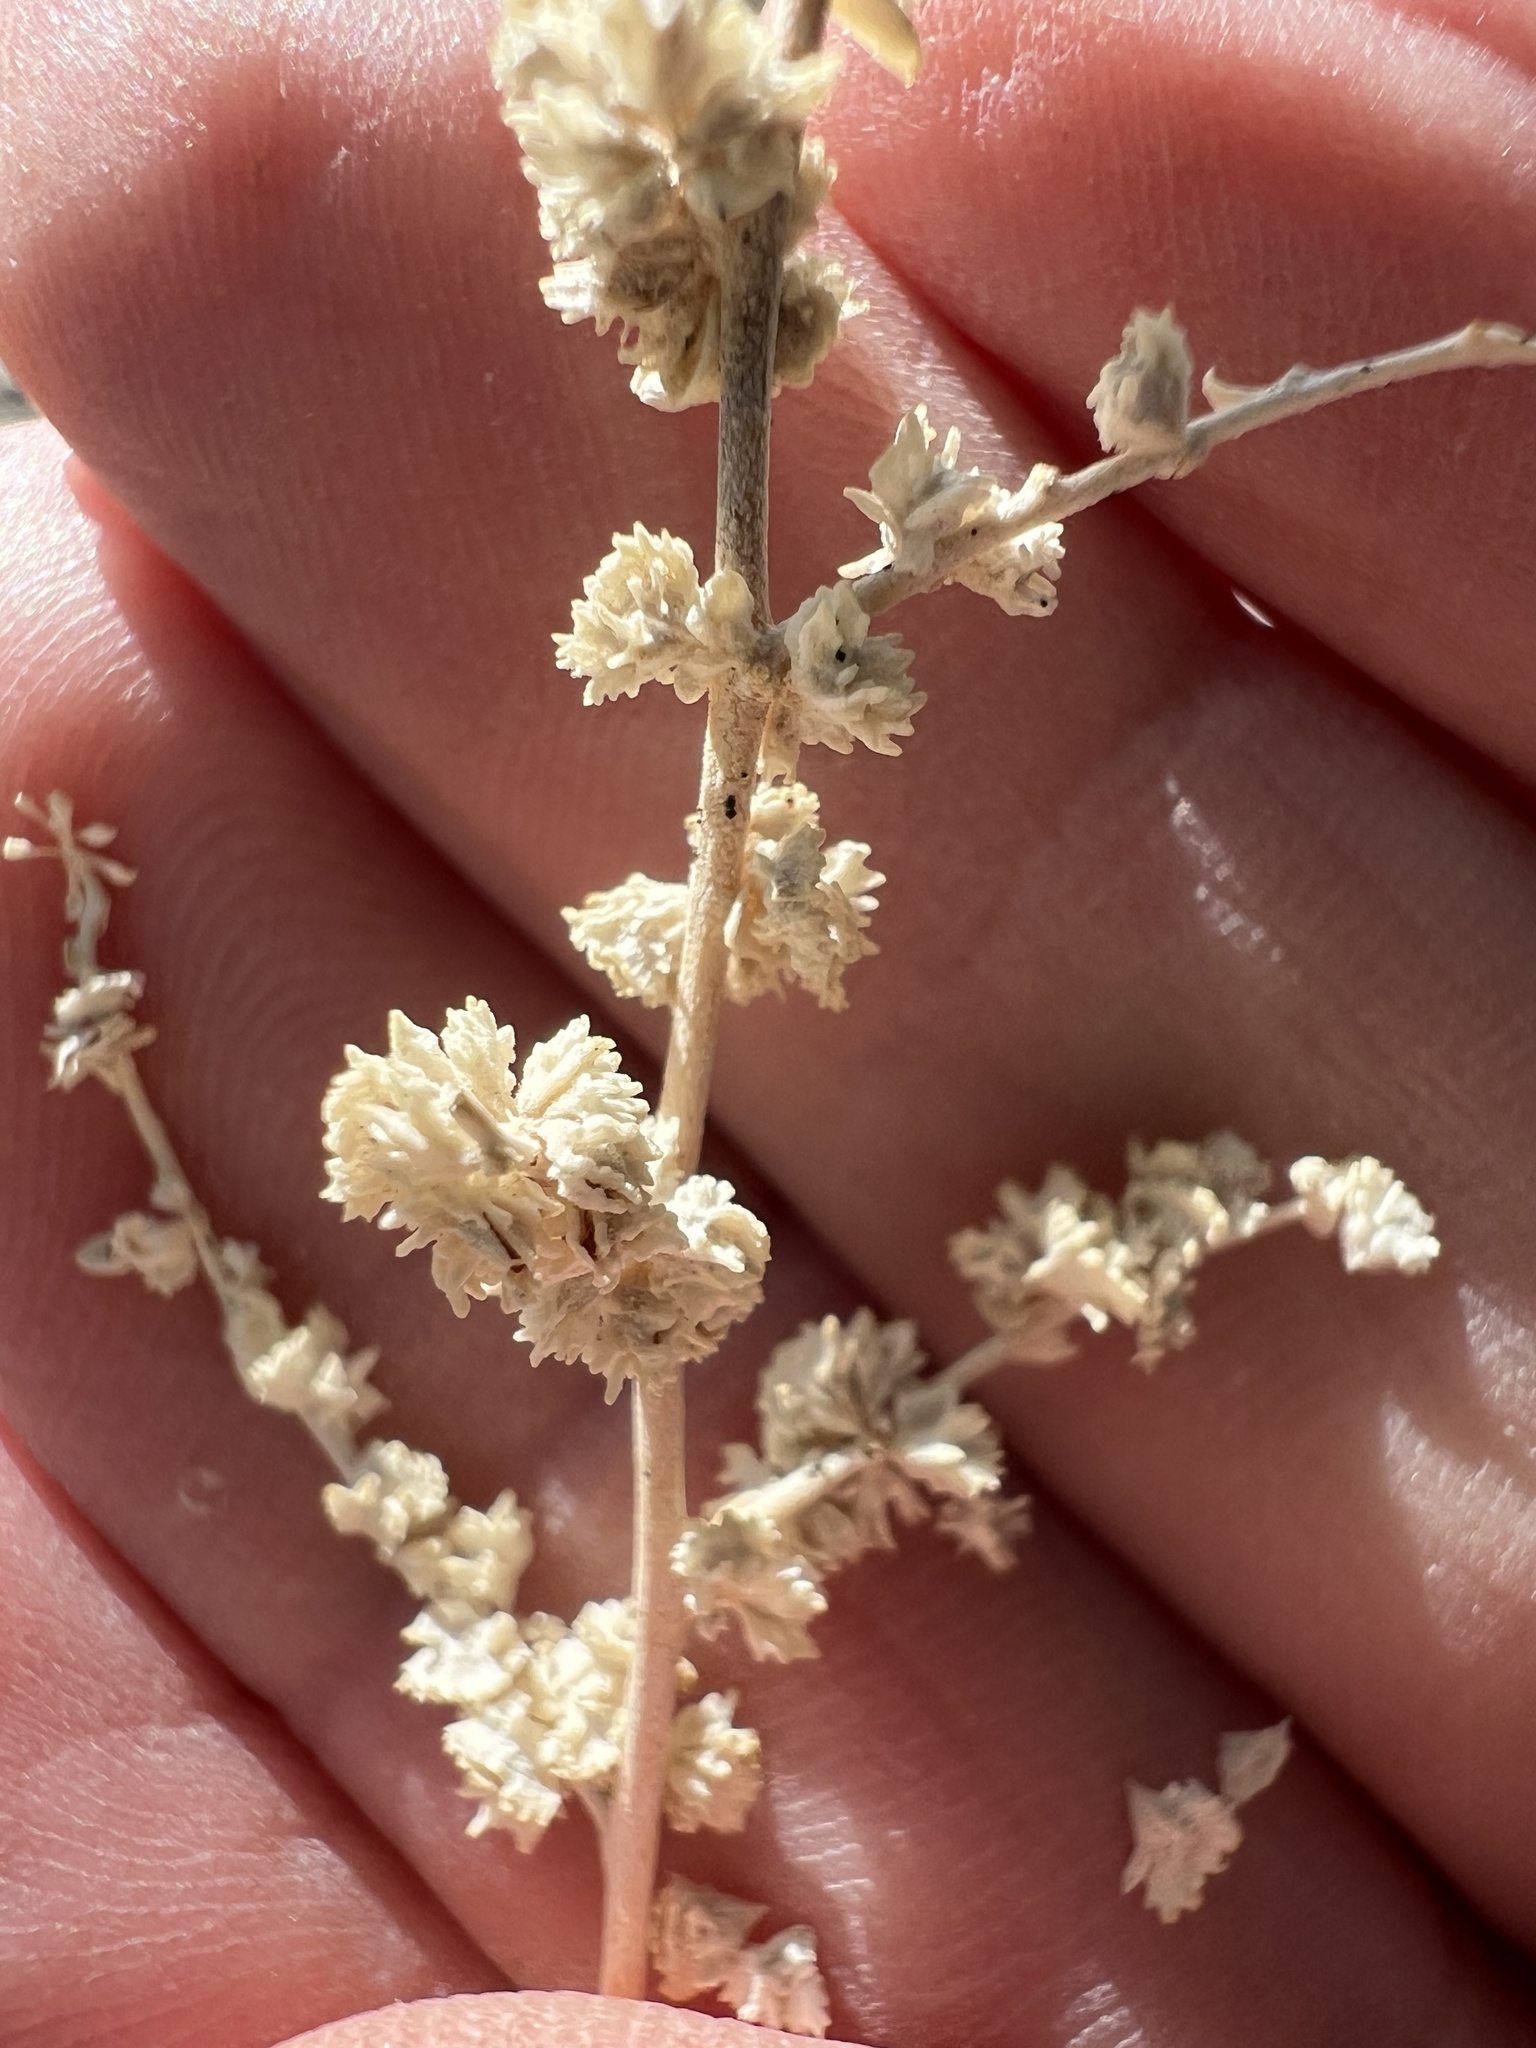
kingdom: Plantae
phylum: Tracheophyta
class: Magnoliopsida
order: Caryophyllales
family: Amaranthaceae
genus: Atriplex
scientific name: Atriplex polycarpa
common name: Desert saltbush
